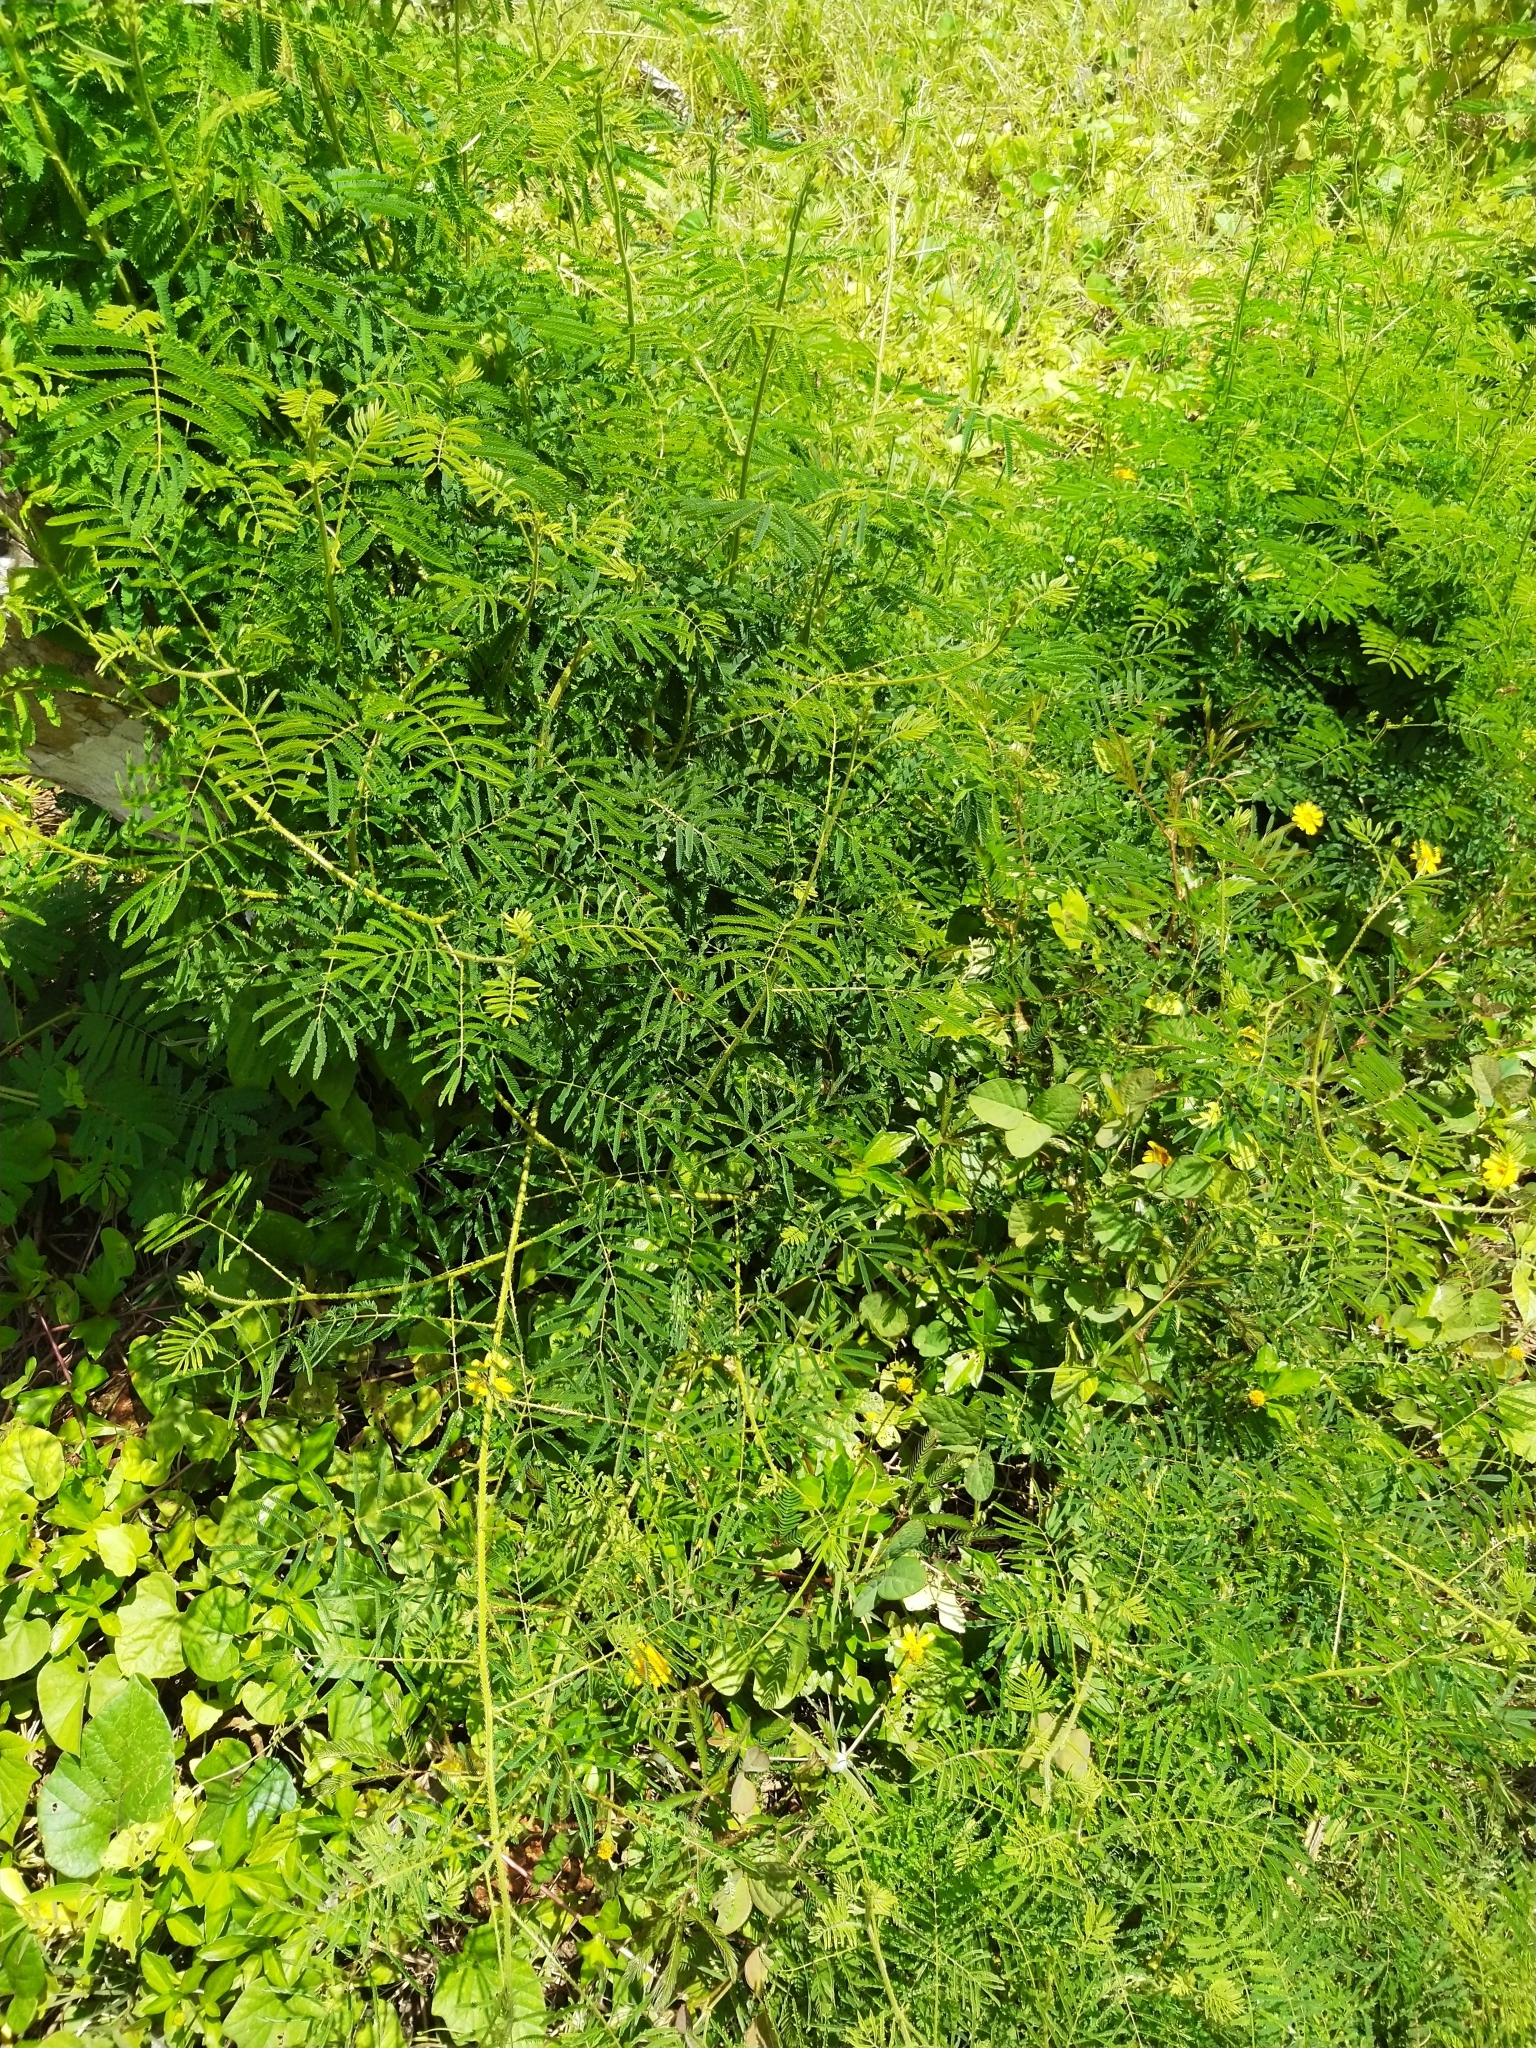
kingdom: Plantae
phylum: Tracheophyta
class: Magnoliopsida
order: Fabales
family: Fabaceae
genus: Mimosa
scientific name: Mimosa diplotricha
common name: Giant sensitive-plant
